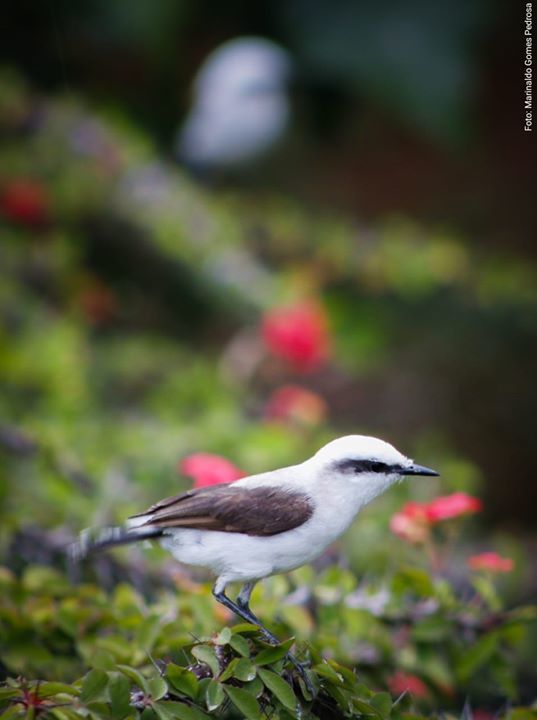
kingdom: Animalia
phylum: Chordata
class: Aves
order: Passeriformes
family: Tyrannidae
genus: Fluvicola
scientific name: Fluvicola nengeta
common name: Masked water tyrant
